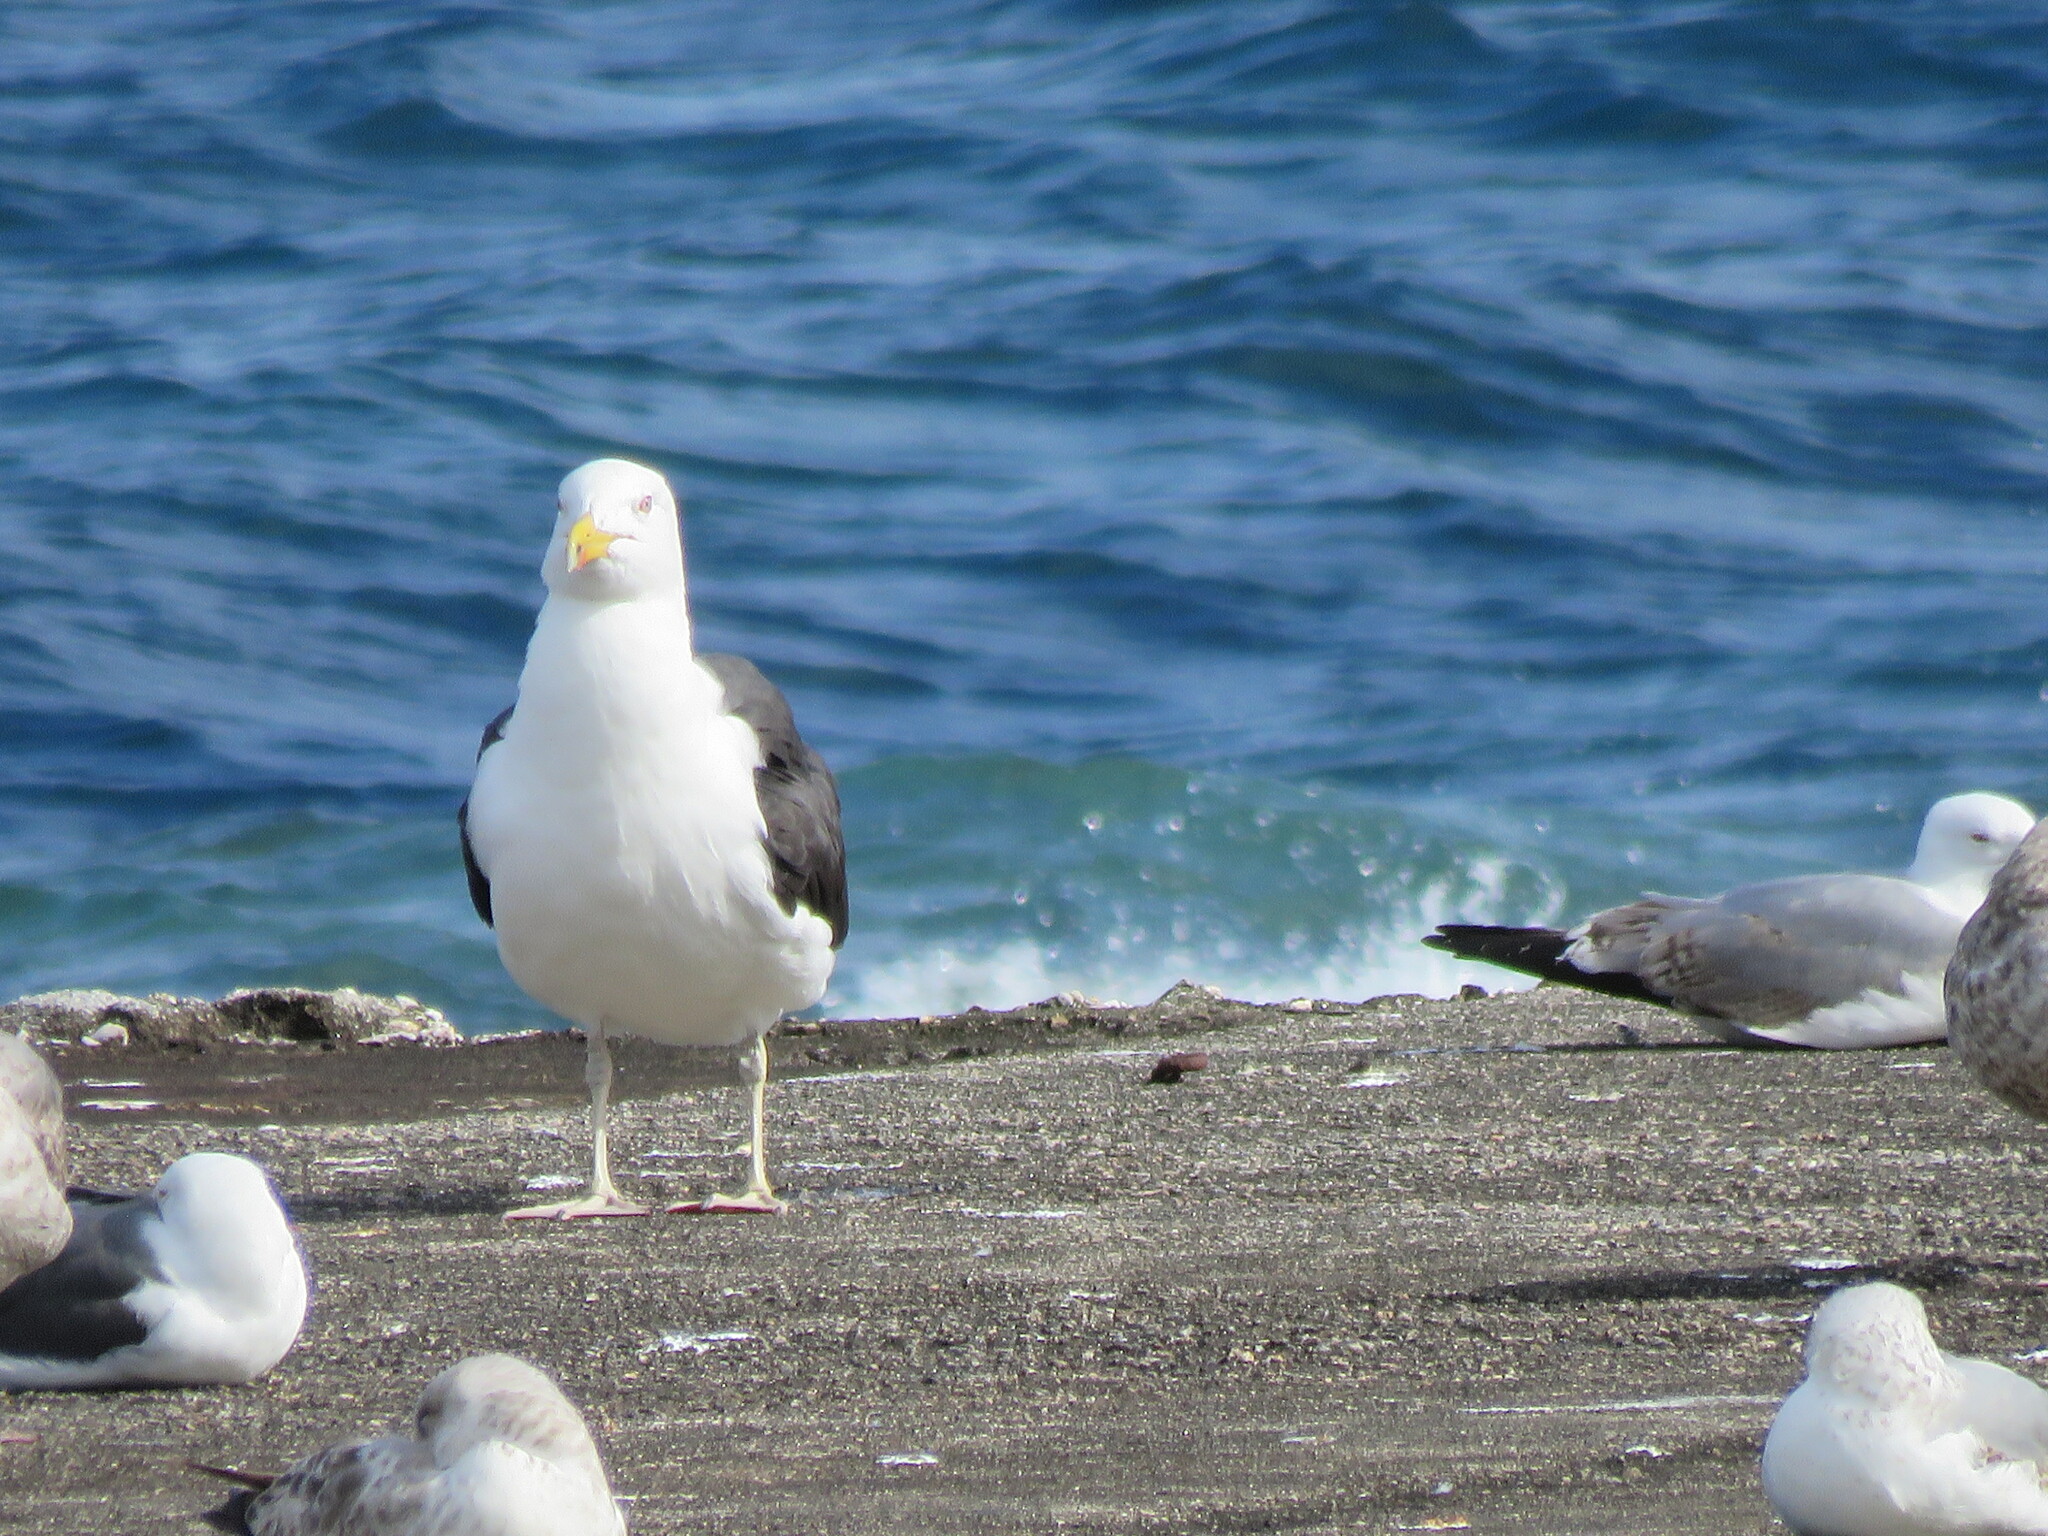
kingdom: Animalia
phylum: Chordata
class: Aves
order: Charadriiformes
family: Laridae
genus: Larus
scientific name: Larus marinus
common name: Great black-backed gull
